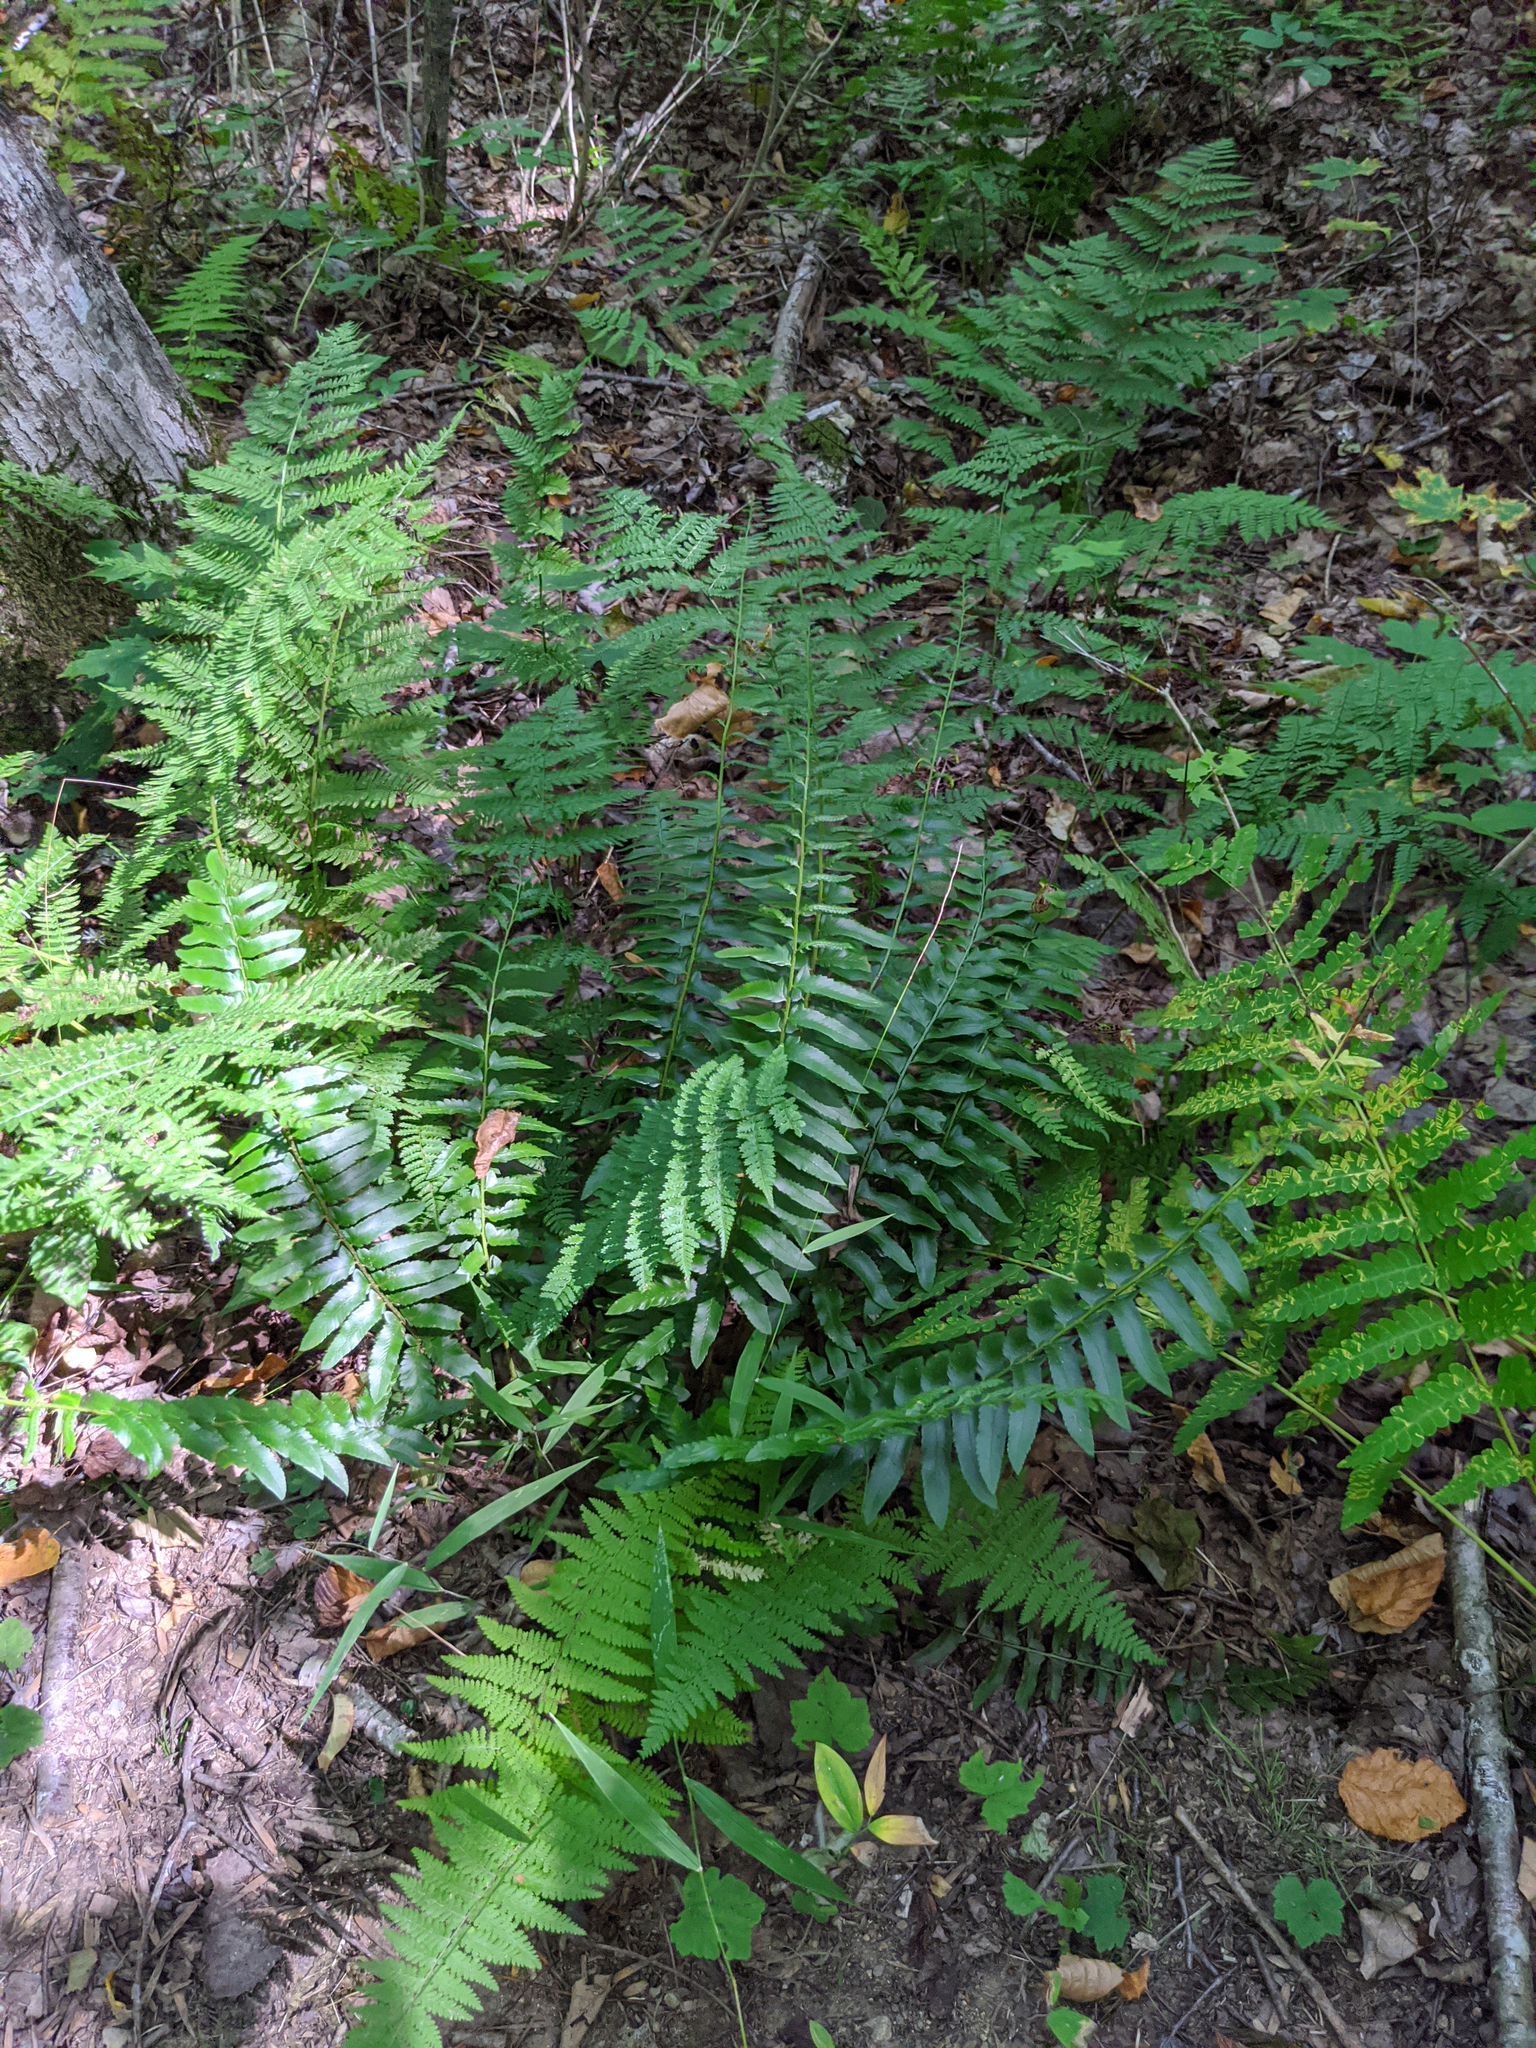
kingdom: Plantae
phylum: Tracheophyta
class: Polypodiopsida
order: Polypodiales
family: Dryopteridaceae
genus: Polystichum
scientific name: Polystichum acrostichoides
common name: Christmas fern
